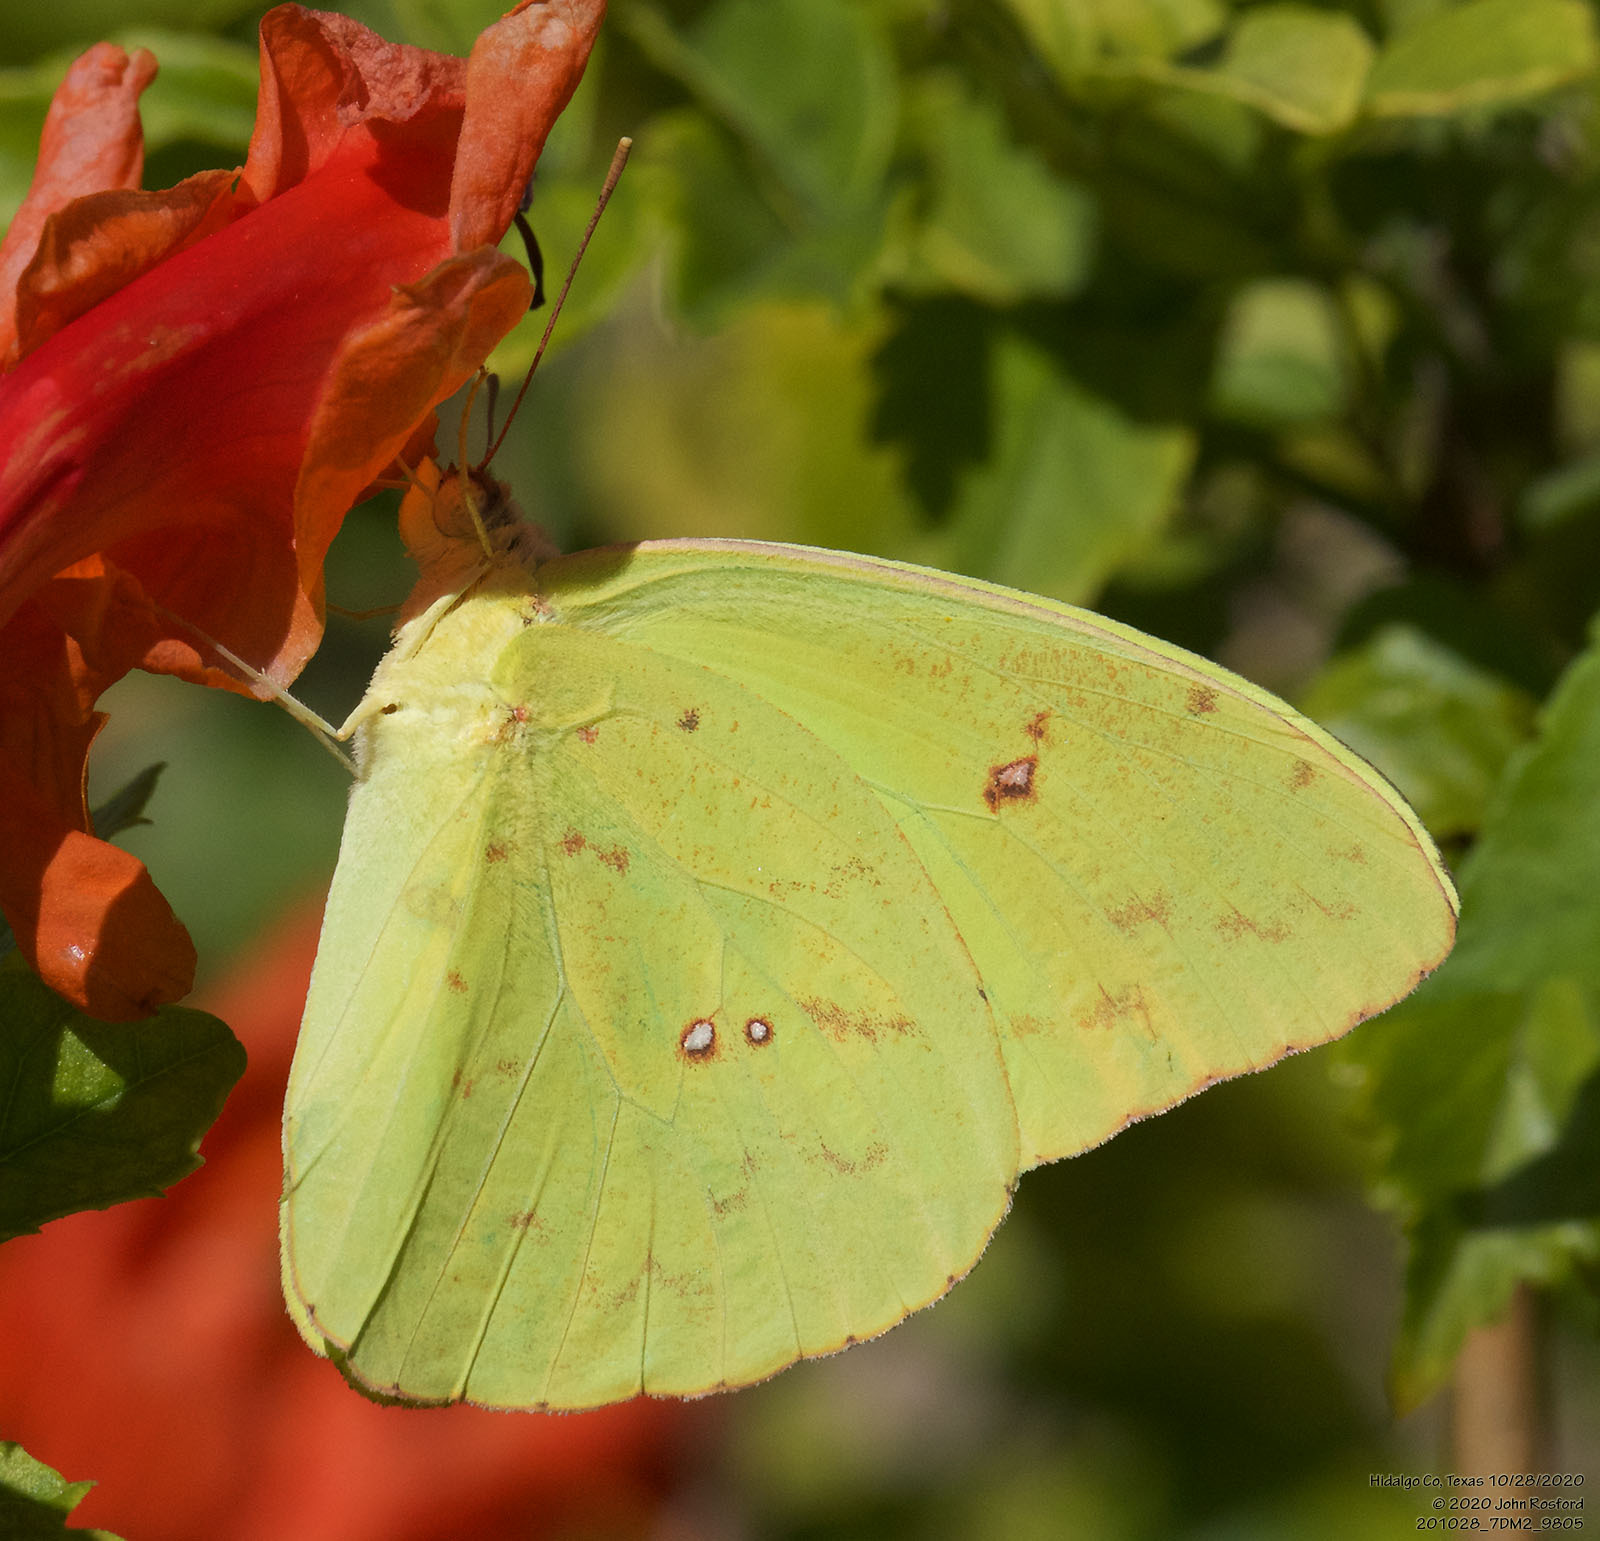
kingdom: Animalia
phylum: Arthropoda
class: Insecta
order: Lepidoptera
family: Pieridae
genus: Phoebis
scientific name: Phoebis sennae
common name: Cloudless sulphur
